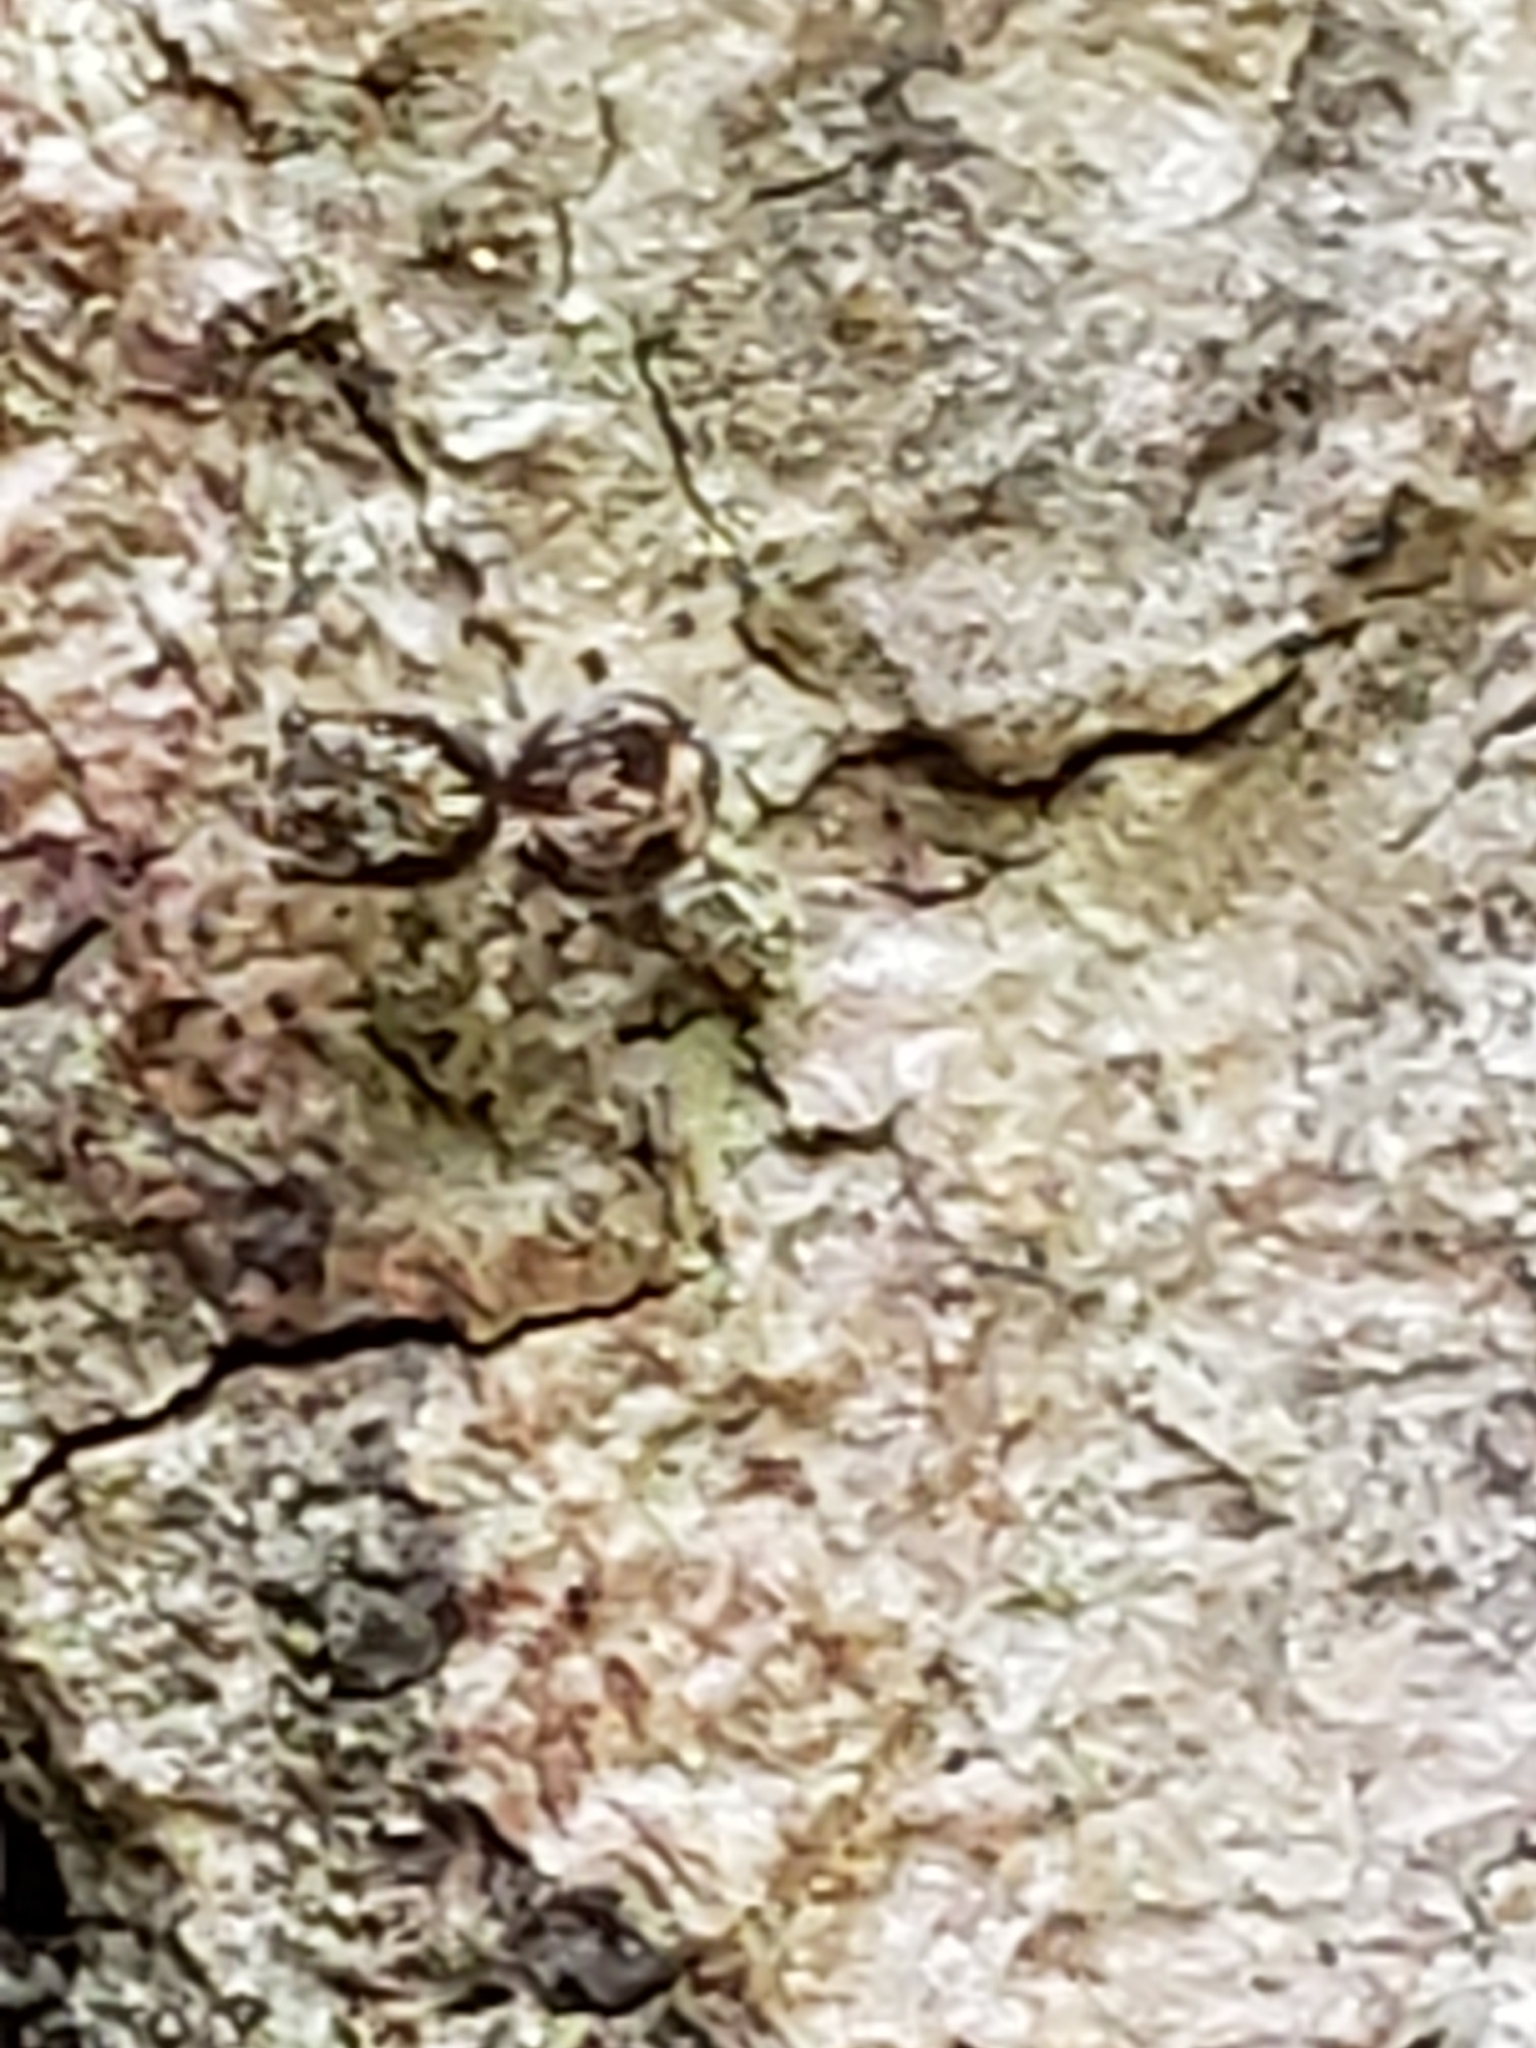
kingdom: Animalia
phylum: Arthropoda
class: Arachnida
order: Araneae
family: Salticidae
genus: Naphrys
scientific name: Naphrys pulex
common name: Flea jumping spider
